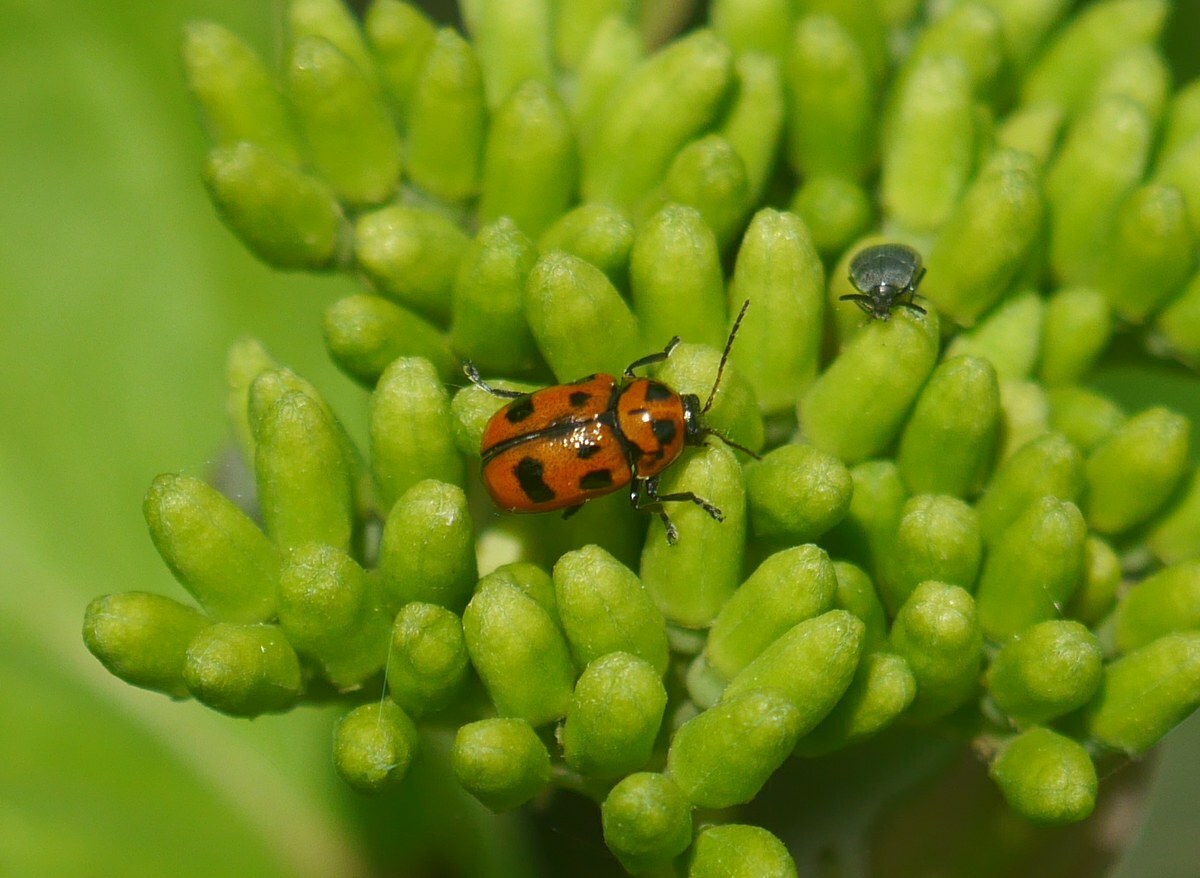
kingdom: Animalia
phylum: Arthropoda
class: Insecta
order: Coleoptera
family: Chrysomelidae
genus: Cryptocephalus
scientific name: Cryptocephalus sexpunctatus
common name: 6 spotted pot beetle
